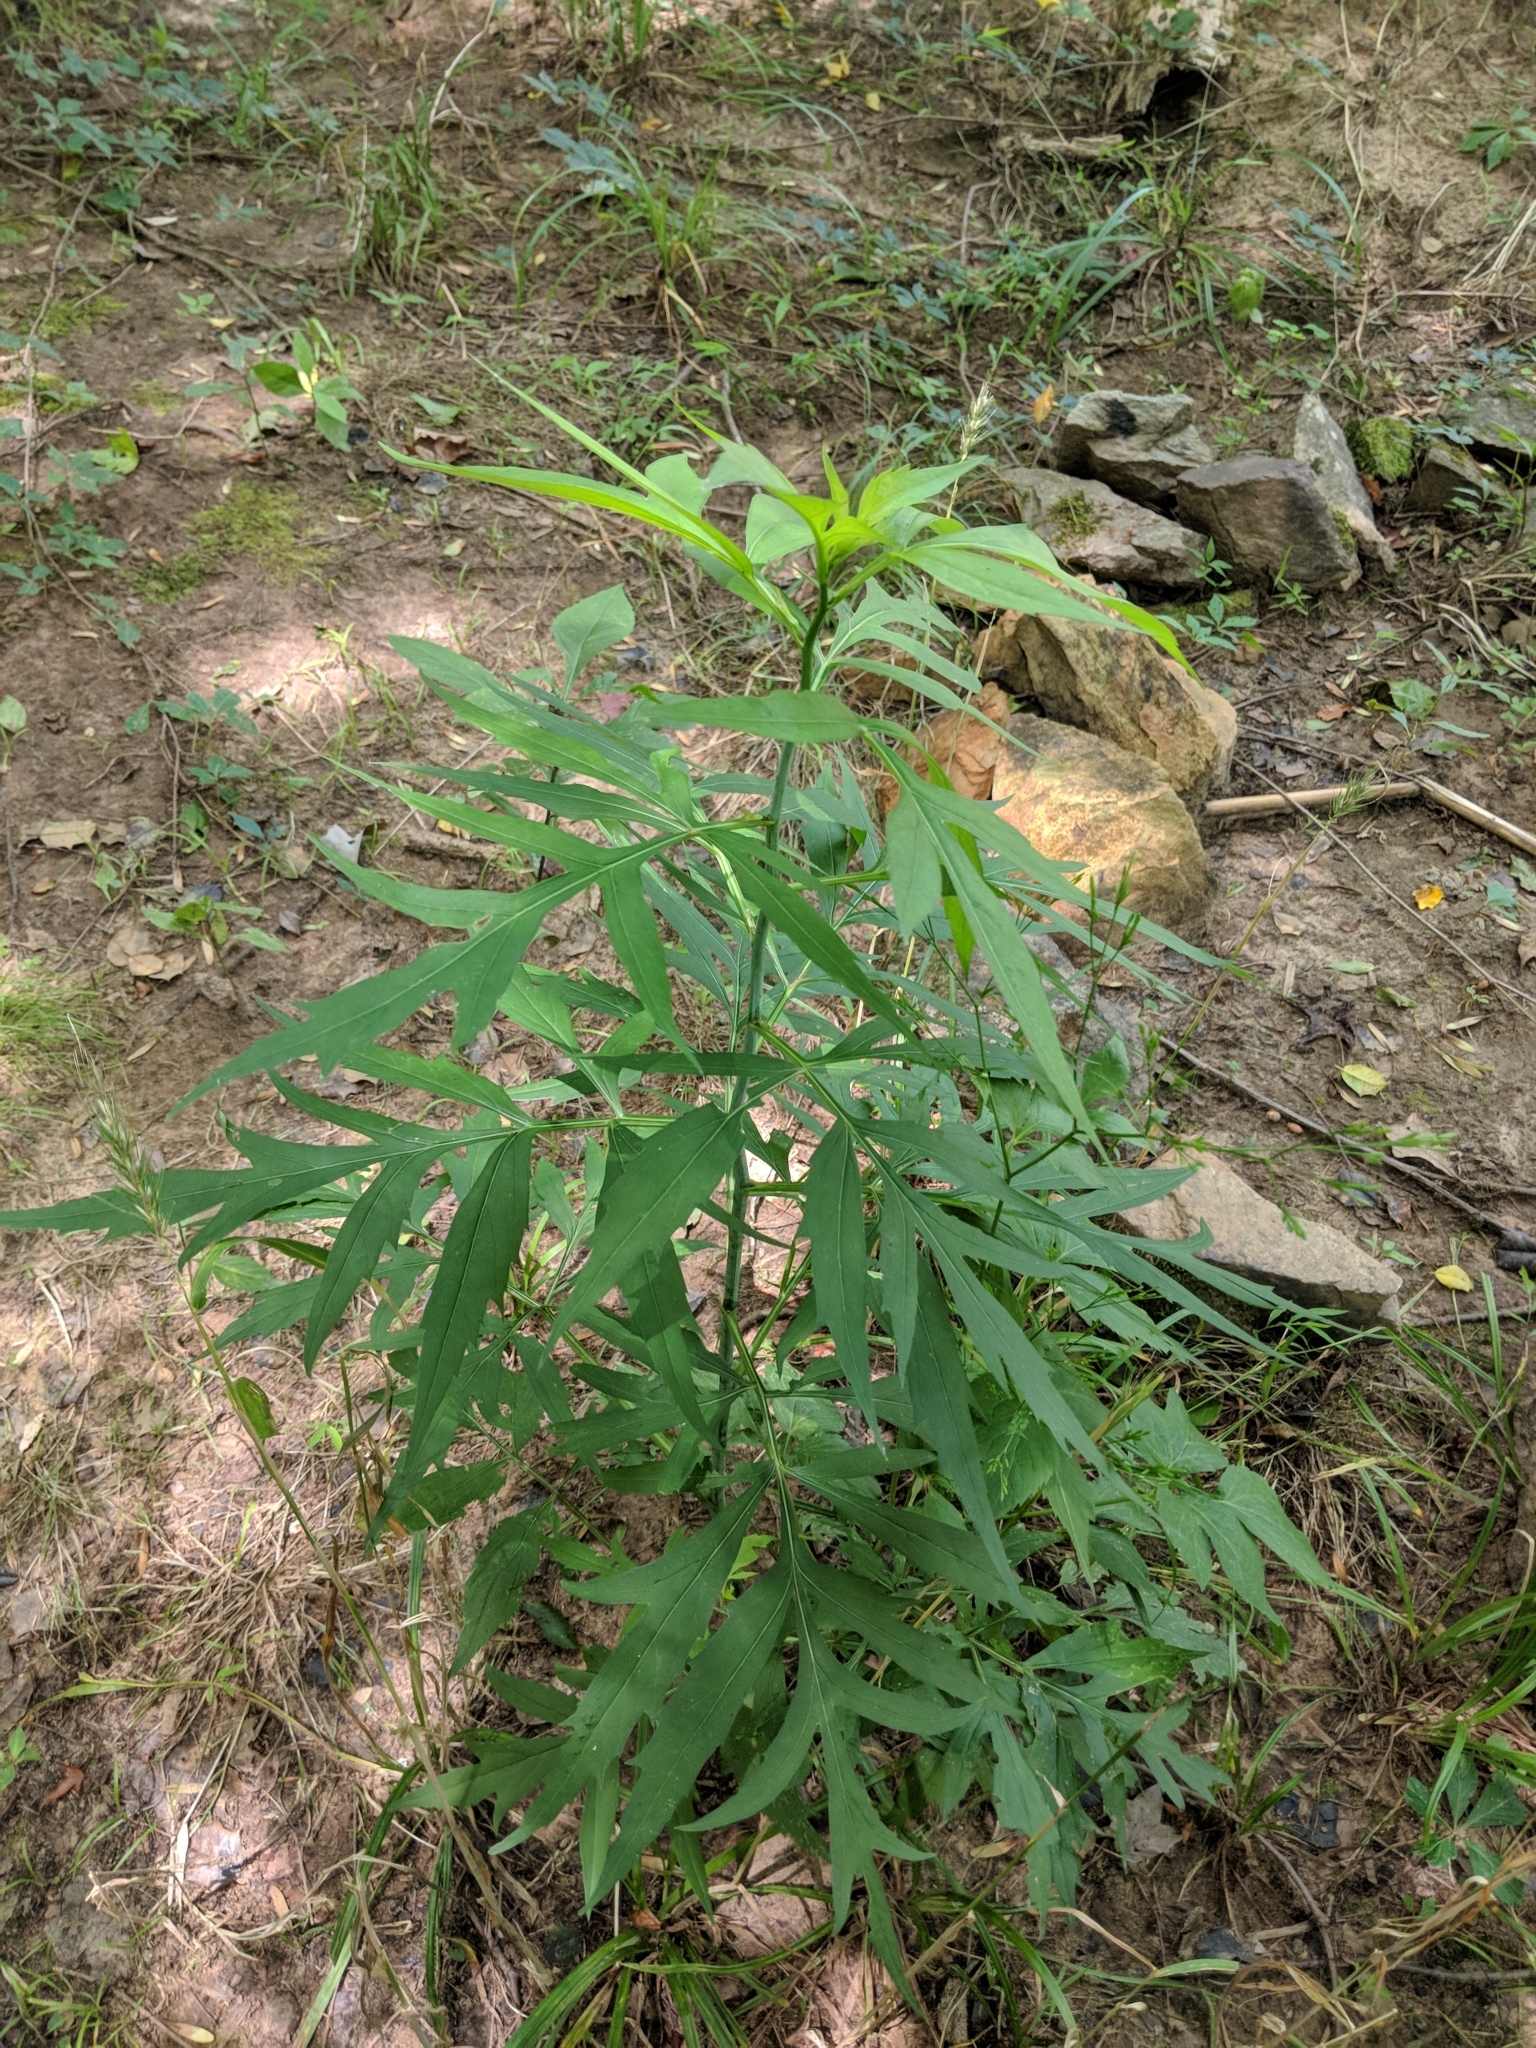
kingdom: Plantae
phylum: Tracheophyta
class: Magnoliopsida
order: Asterales
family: Asteraceae
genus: Rudbeckia
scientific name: Rudbeckia laciniata
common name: Coneflower
